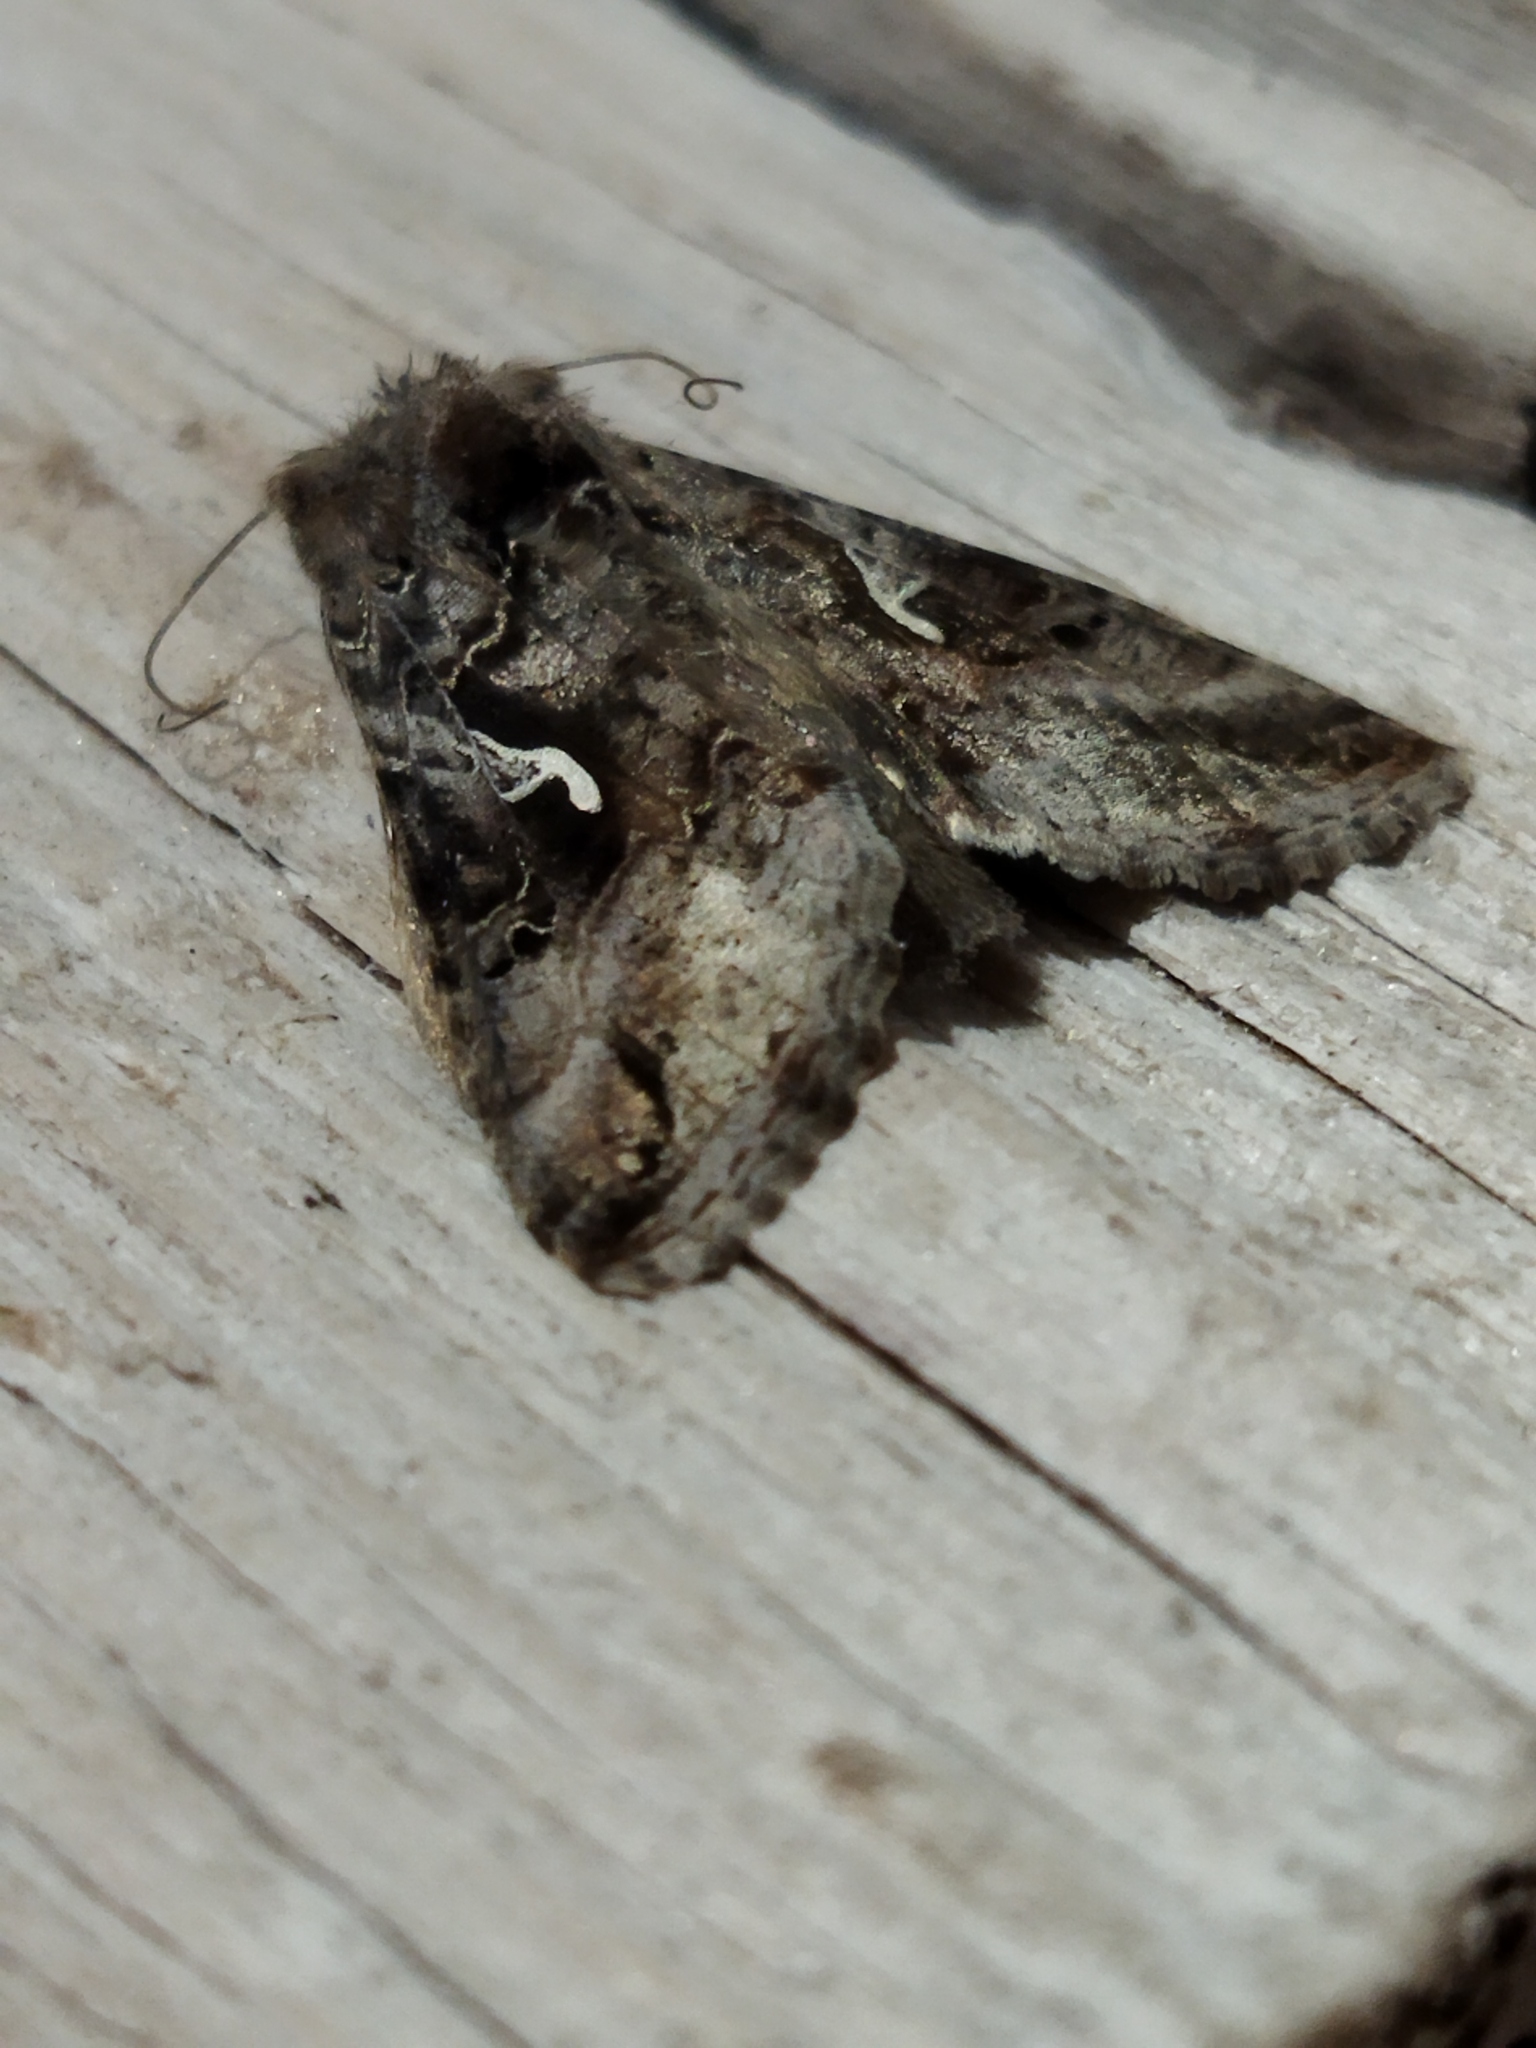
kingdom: Animalia
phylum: Arthropoda
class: Insecta
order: Lepidoptera
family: Noctuidae
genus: Autographa
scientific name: Autographa gamma
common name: Silver y
